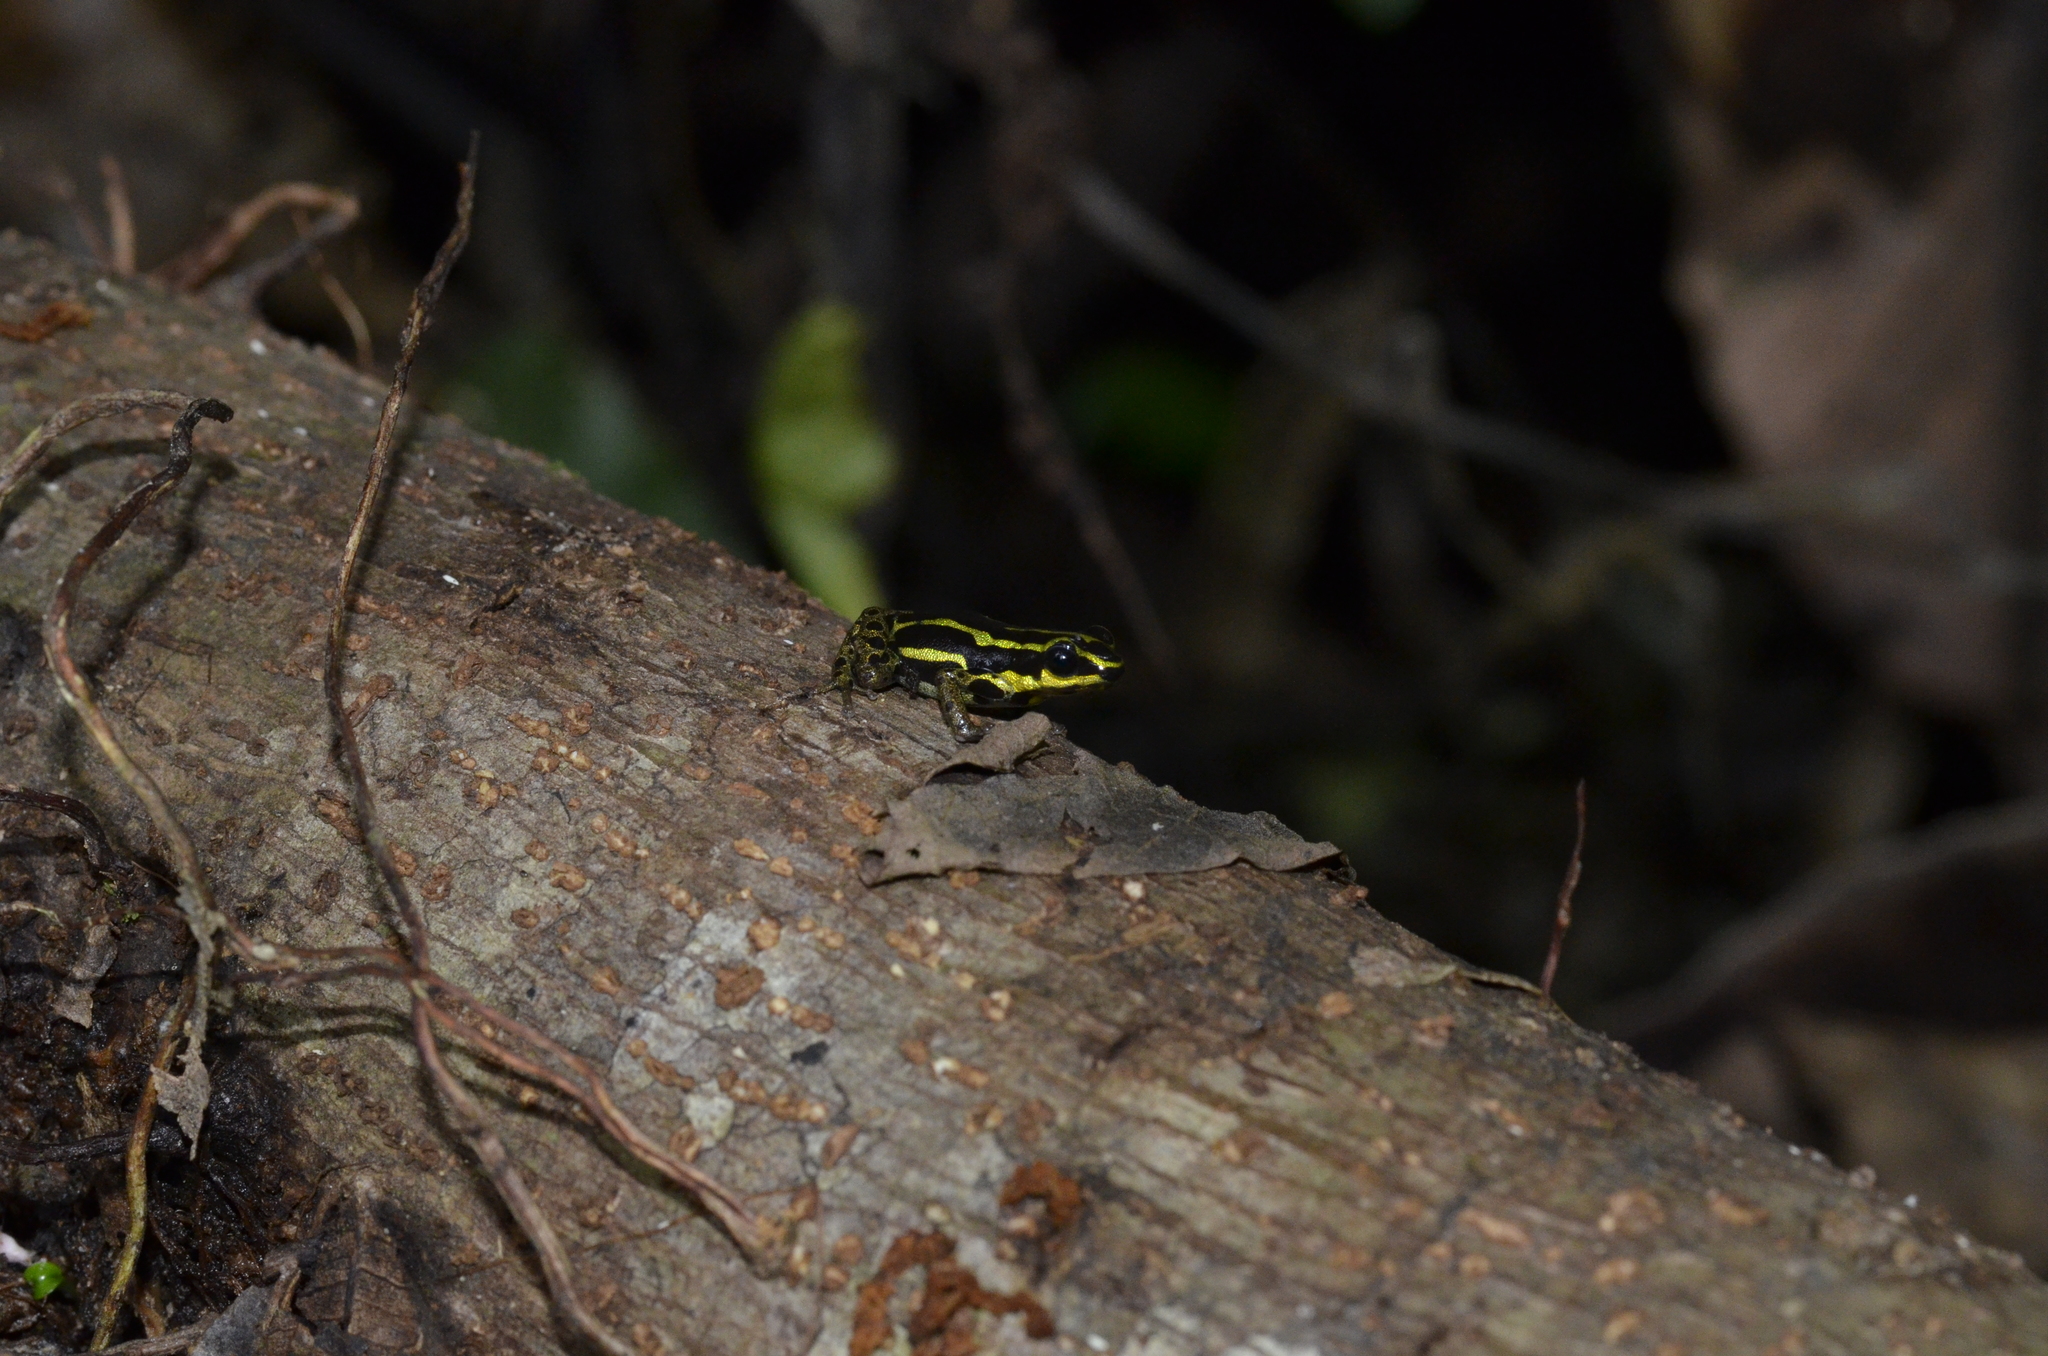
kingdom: Animalia
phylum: Chordata
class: Amphibia
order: Anura
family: Dendrobatidae
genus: Ranitomeya
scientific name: Ranitomeya variabilis
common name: Variable poison frog
